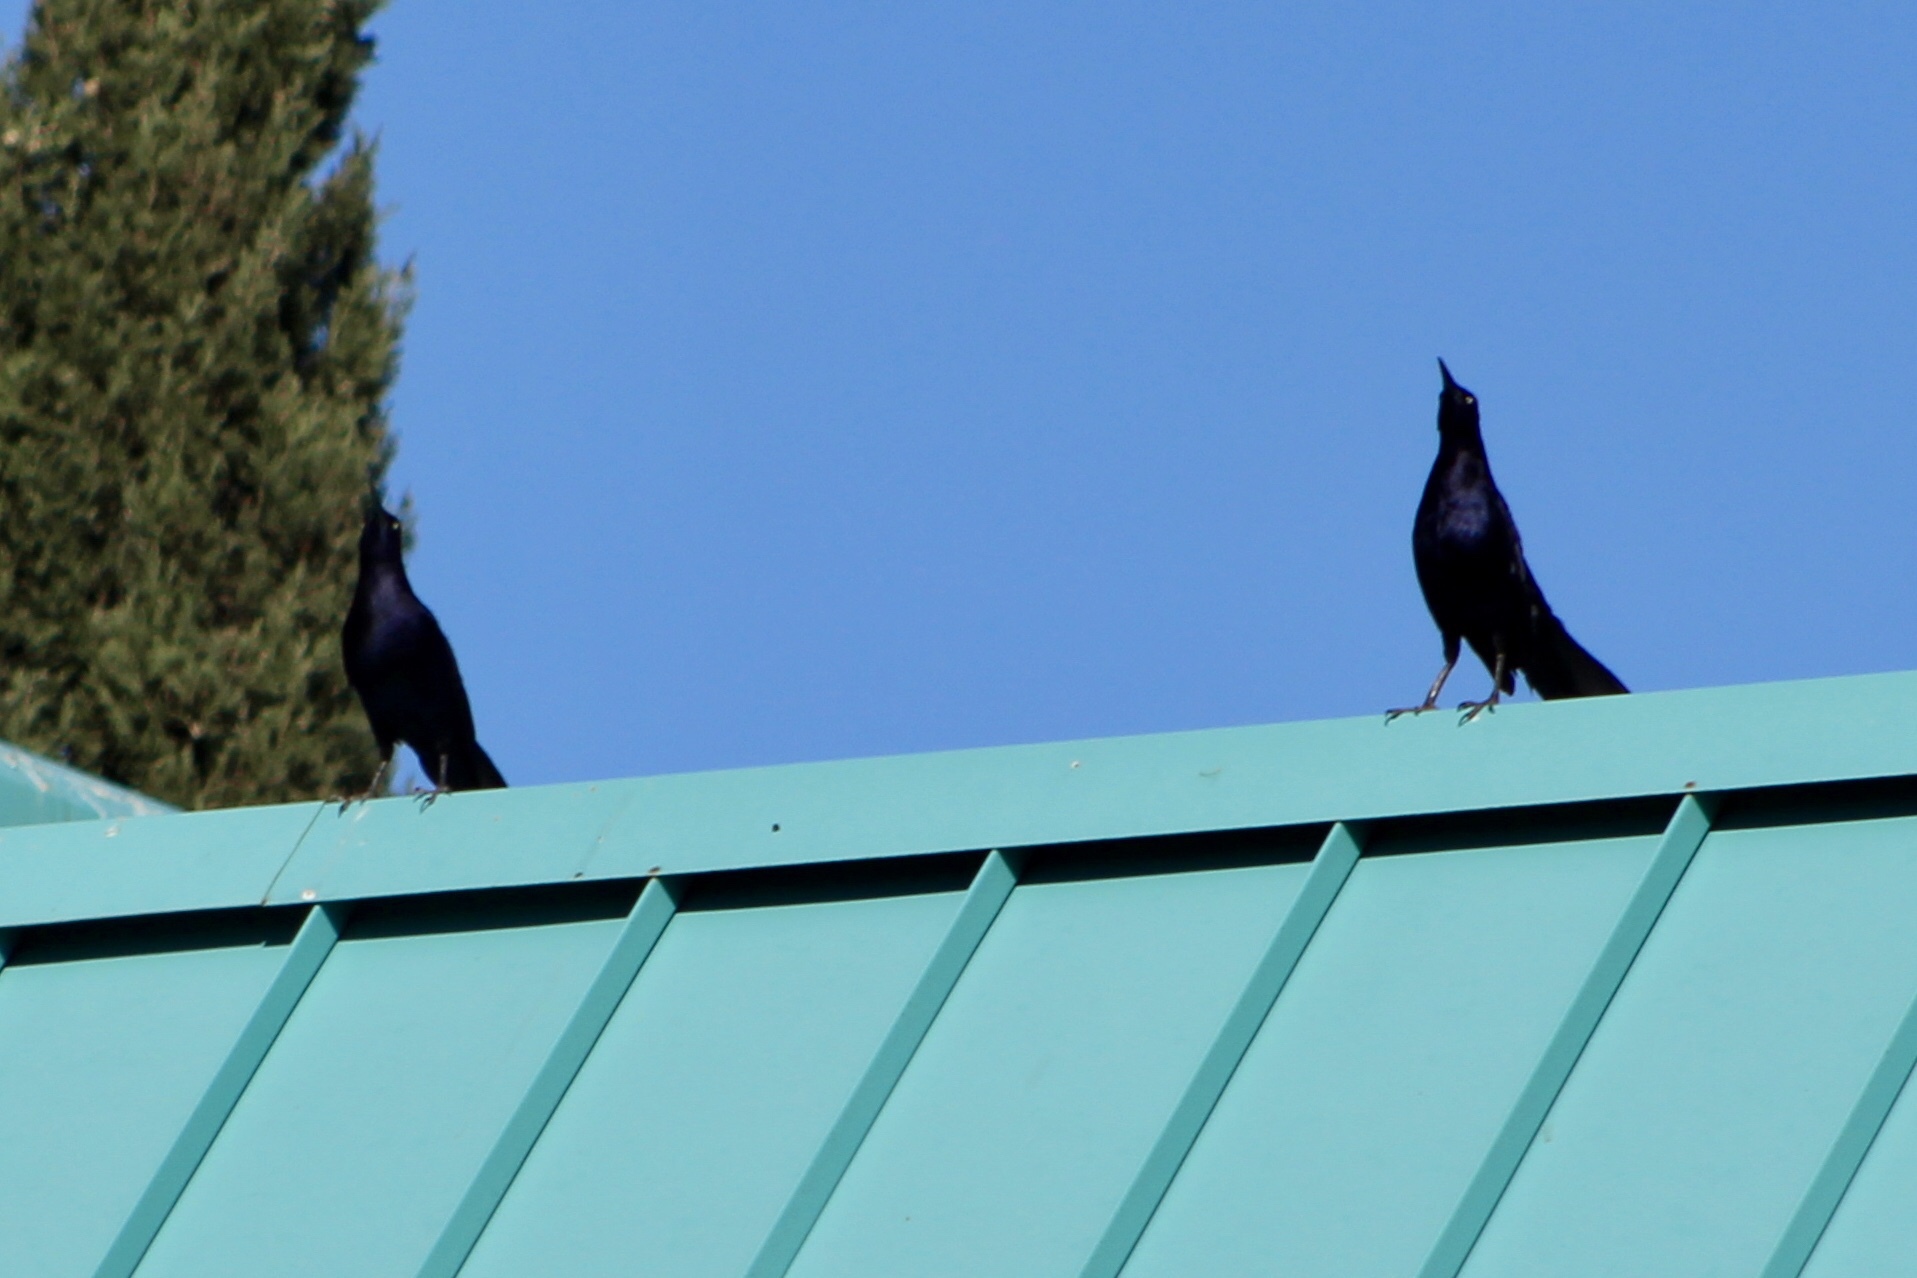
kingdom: Animalia
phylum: Chordata
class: Aves
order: Passeriformes
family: Icteridae
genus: Quiscalus
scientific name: Quiscalus mexicanus
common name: Great-tailed grackle
